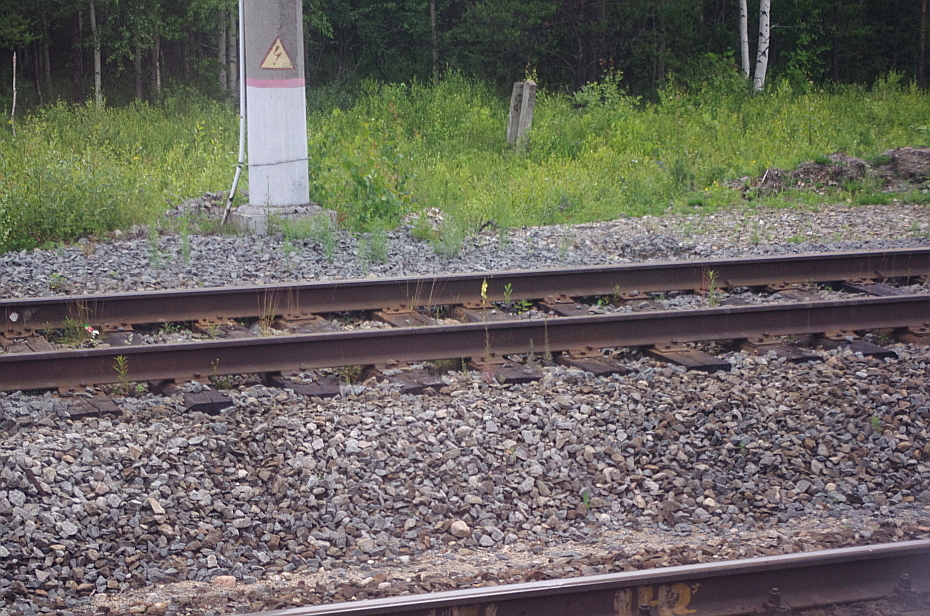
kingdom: Plantae
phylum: Tracheophyta
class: Magnoliopsida
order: Lamiales
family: Plantaginaceae
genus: Linaria
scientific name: Linaria vulgaris
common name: Butter and eggs
